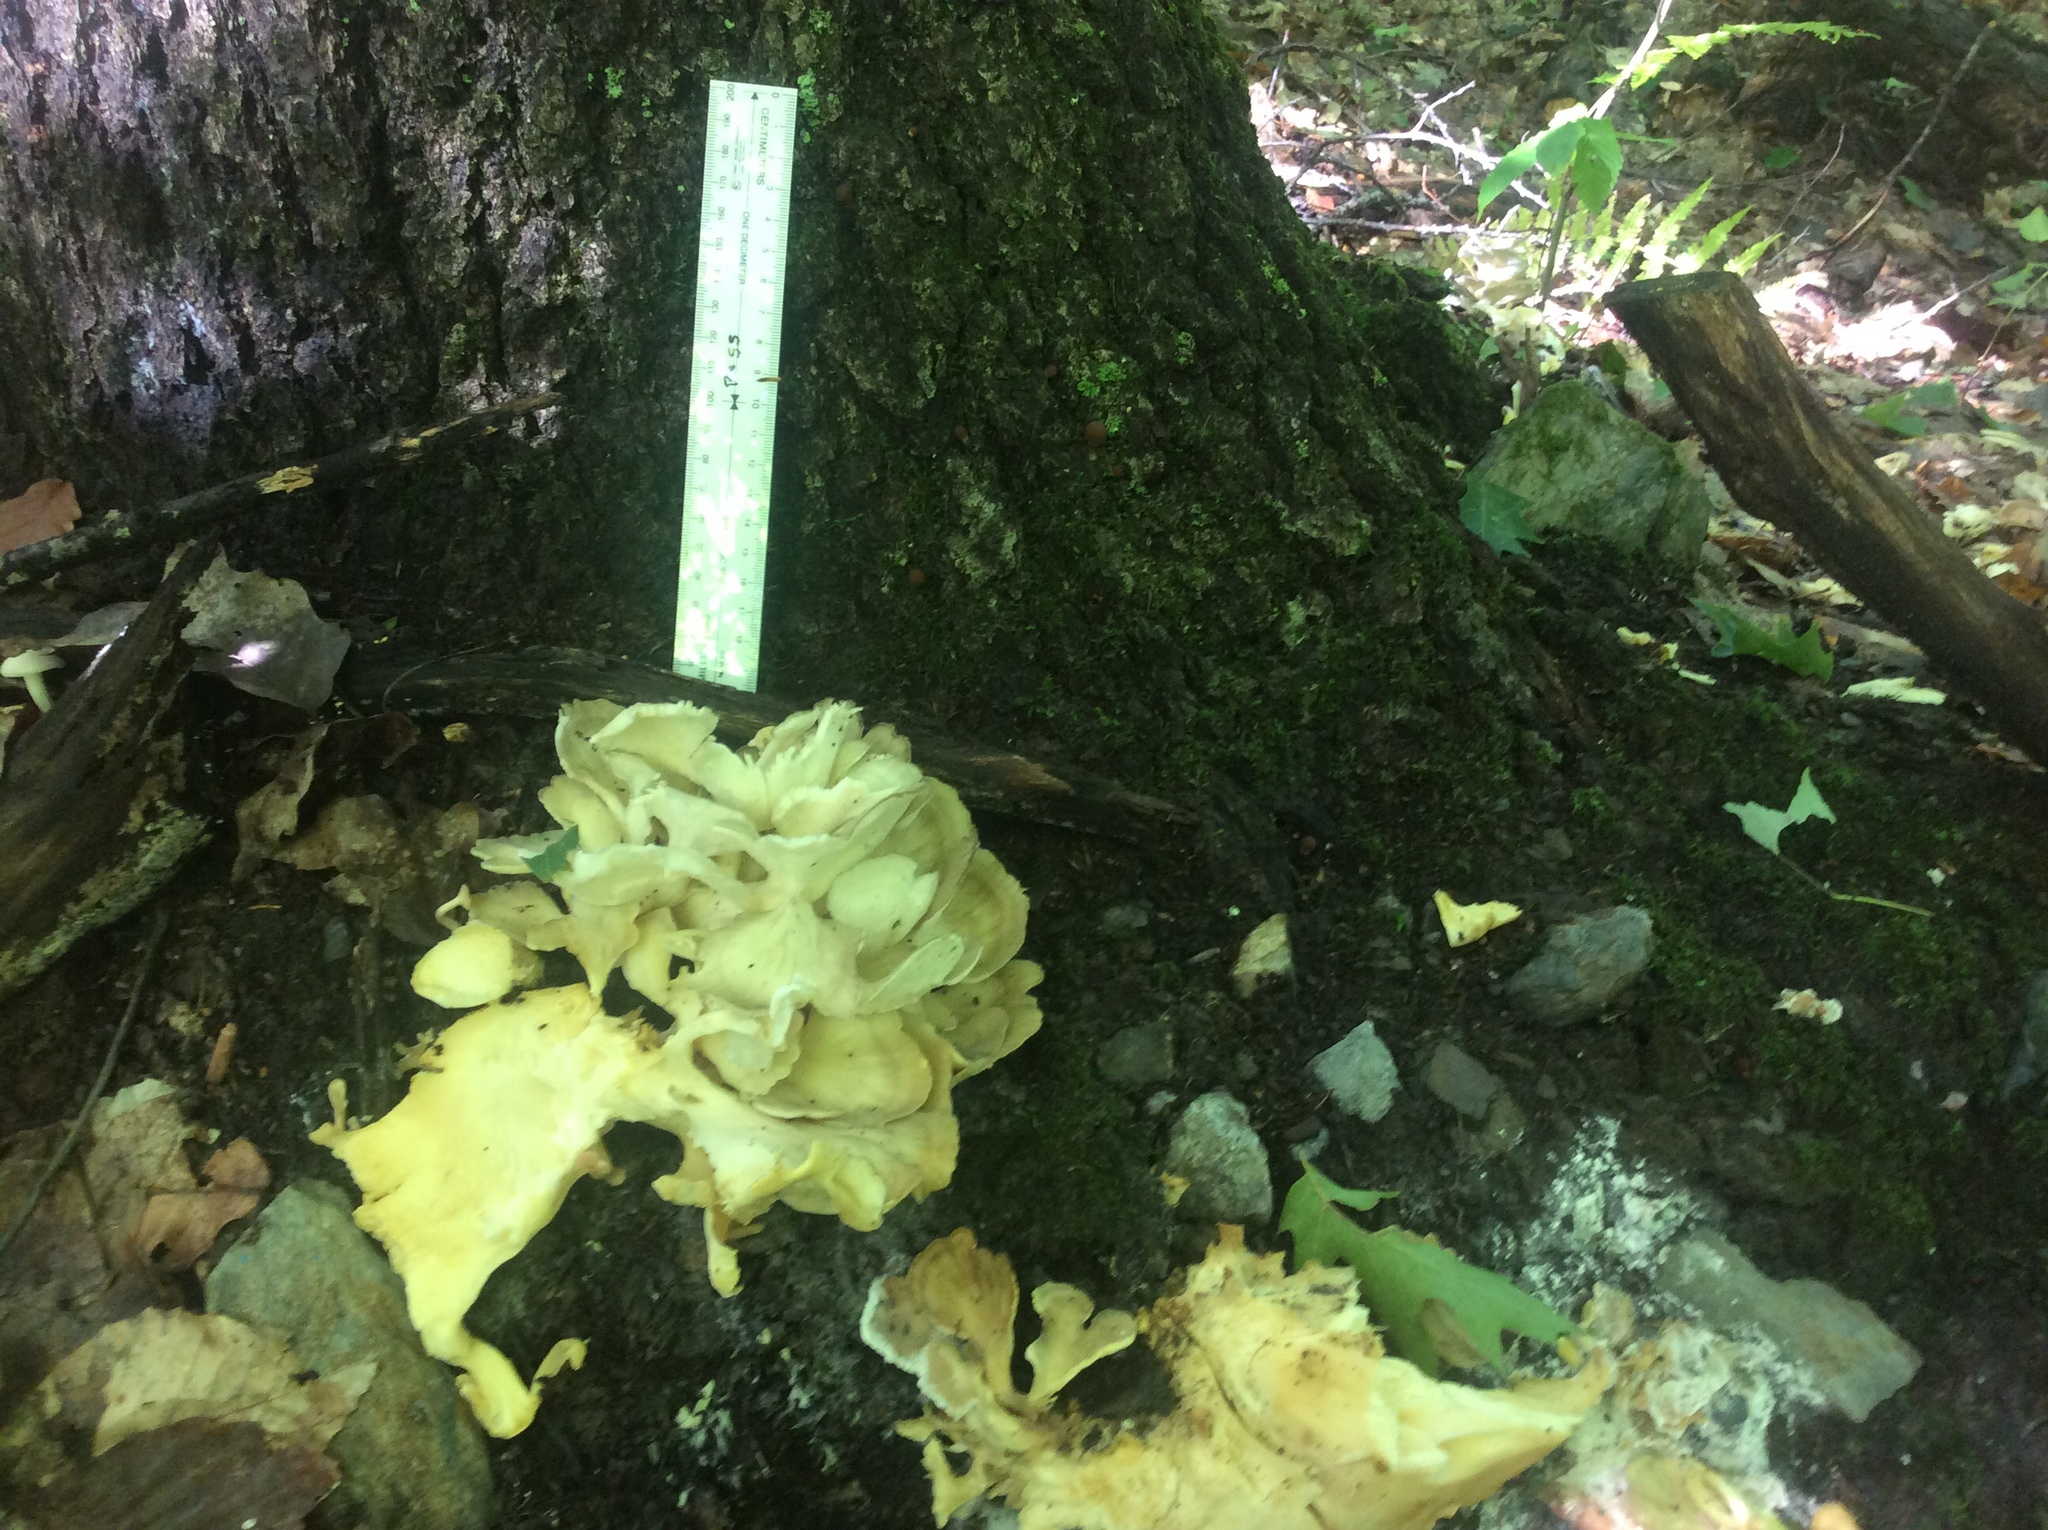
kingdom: Fungi
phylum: Basidiomycota
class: Agaricomycetes
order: Polyporales
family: Grifolaceae
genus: Grifola
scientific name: Grifola frondosa
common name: Hen of the woods
